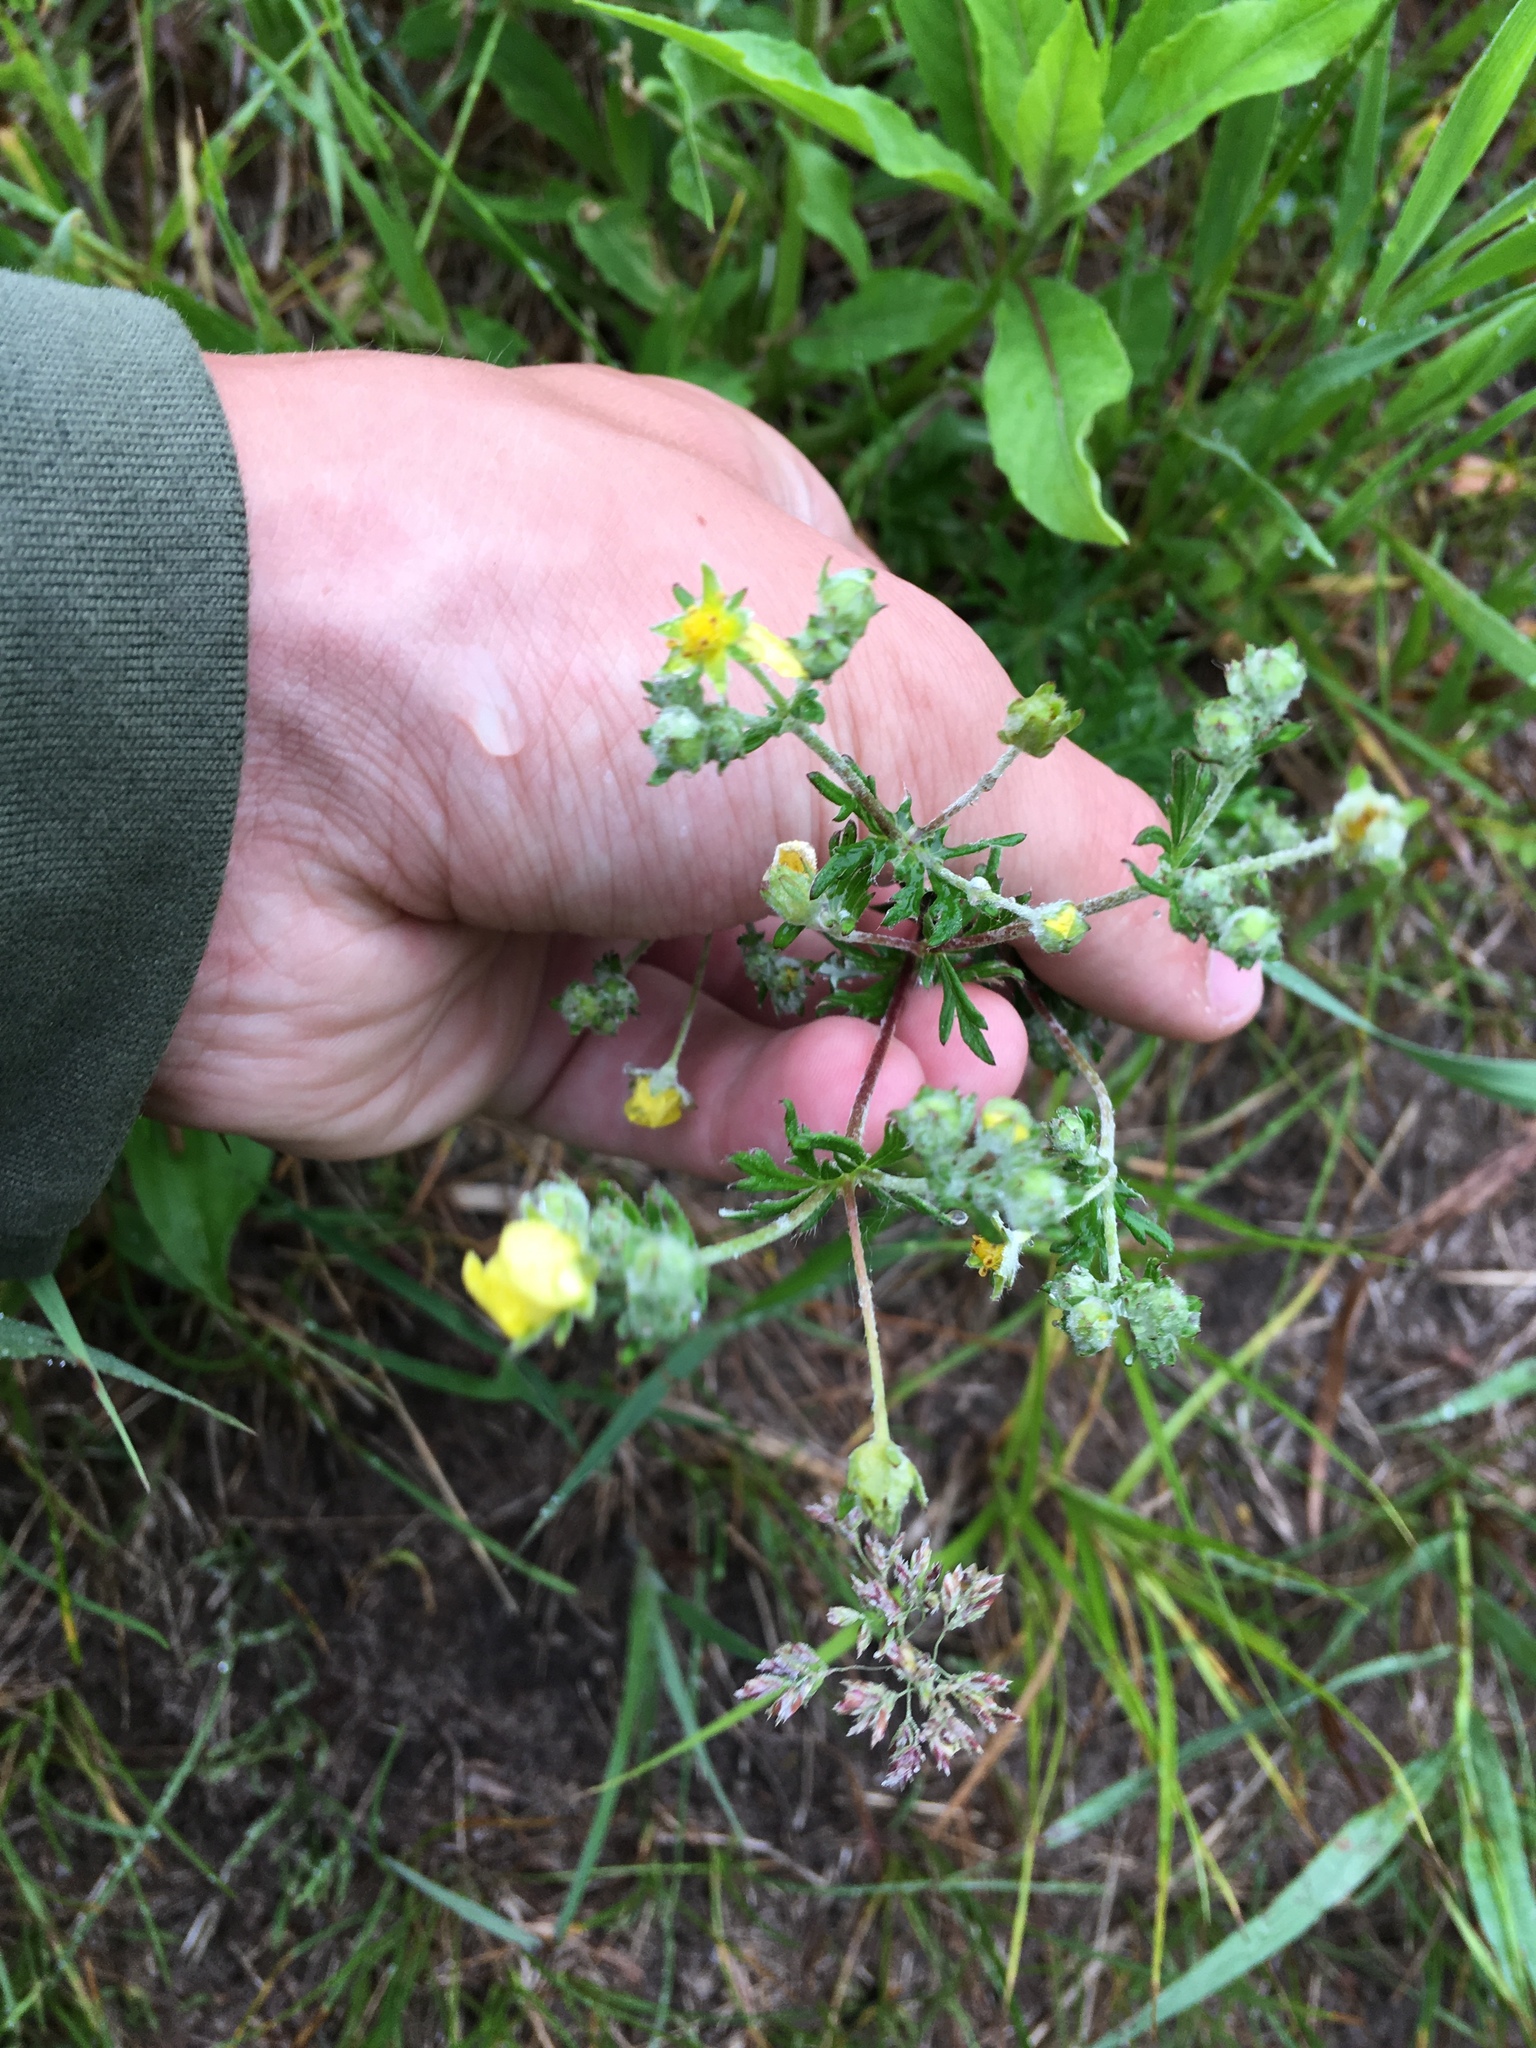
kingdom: Plantae
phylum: Tracheophyta
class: Magnoliopsida
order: Rosales
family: Rosaceae
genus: Potentilla
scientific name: Potentilla argentea
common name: Hoary cinquefoil
